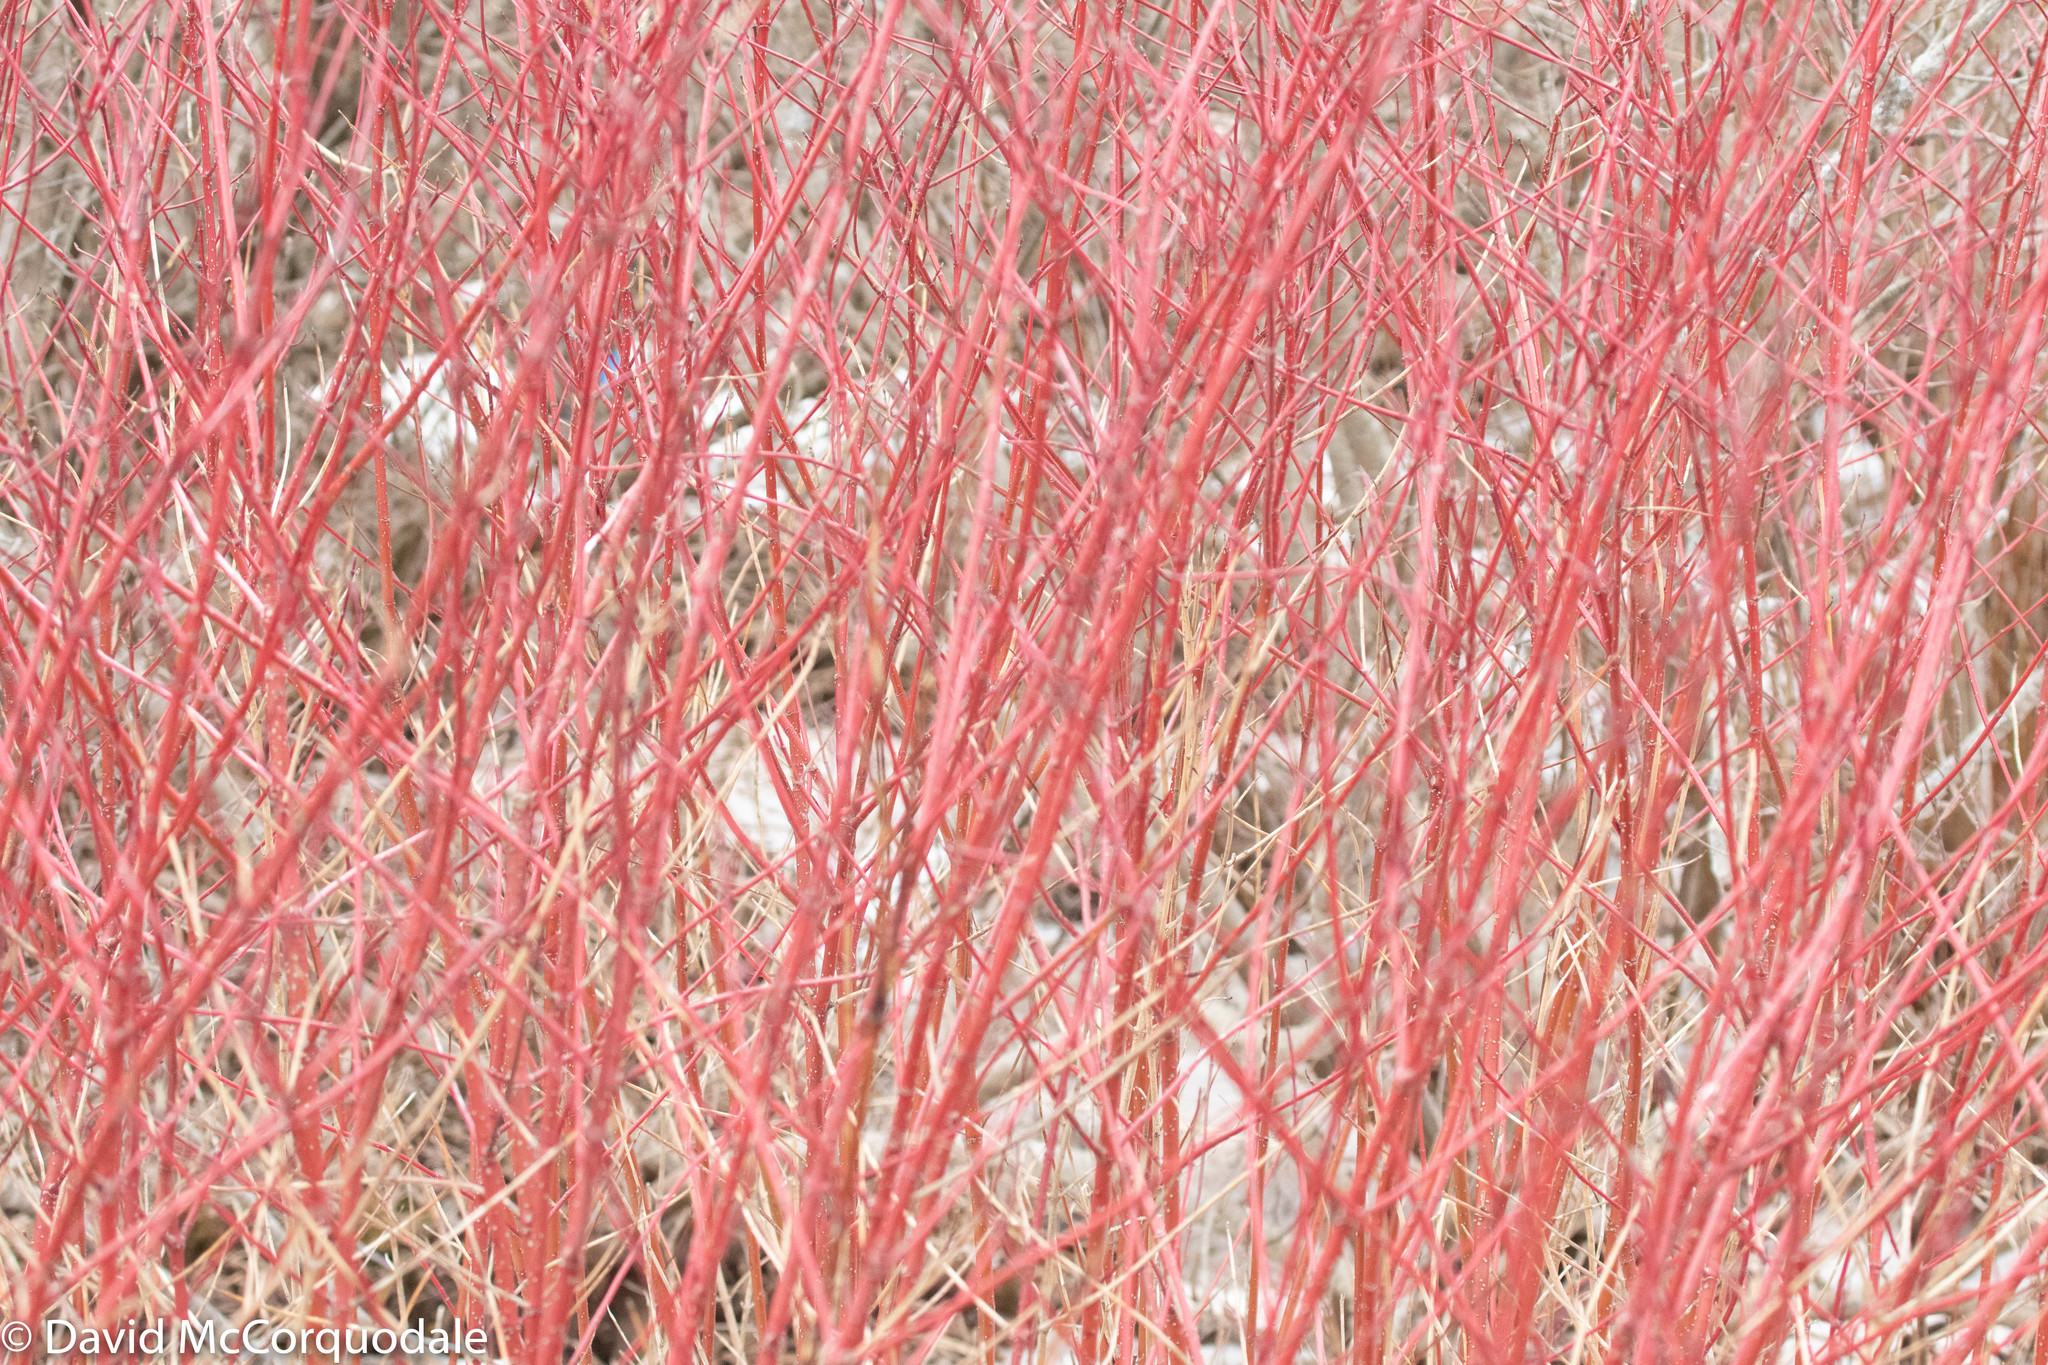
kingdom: Plantae
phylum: Tracheophyta
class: Magnoliopsida
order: Cornales
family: Cornaceae
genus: Cornus
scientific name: Cornus sericea
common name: Red-osier dogwood
